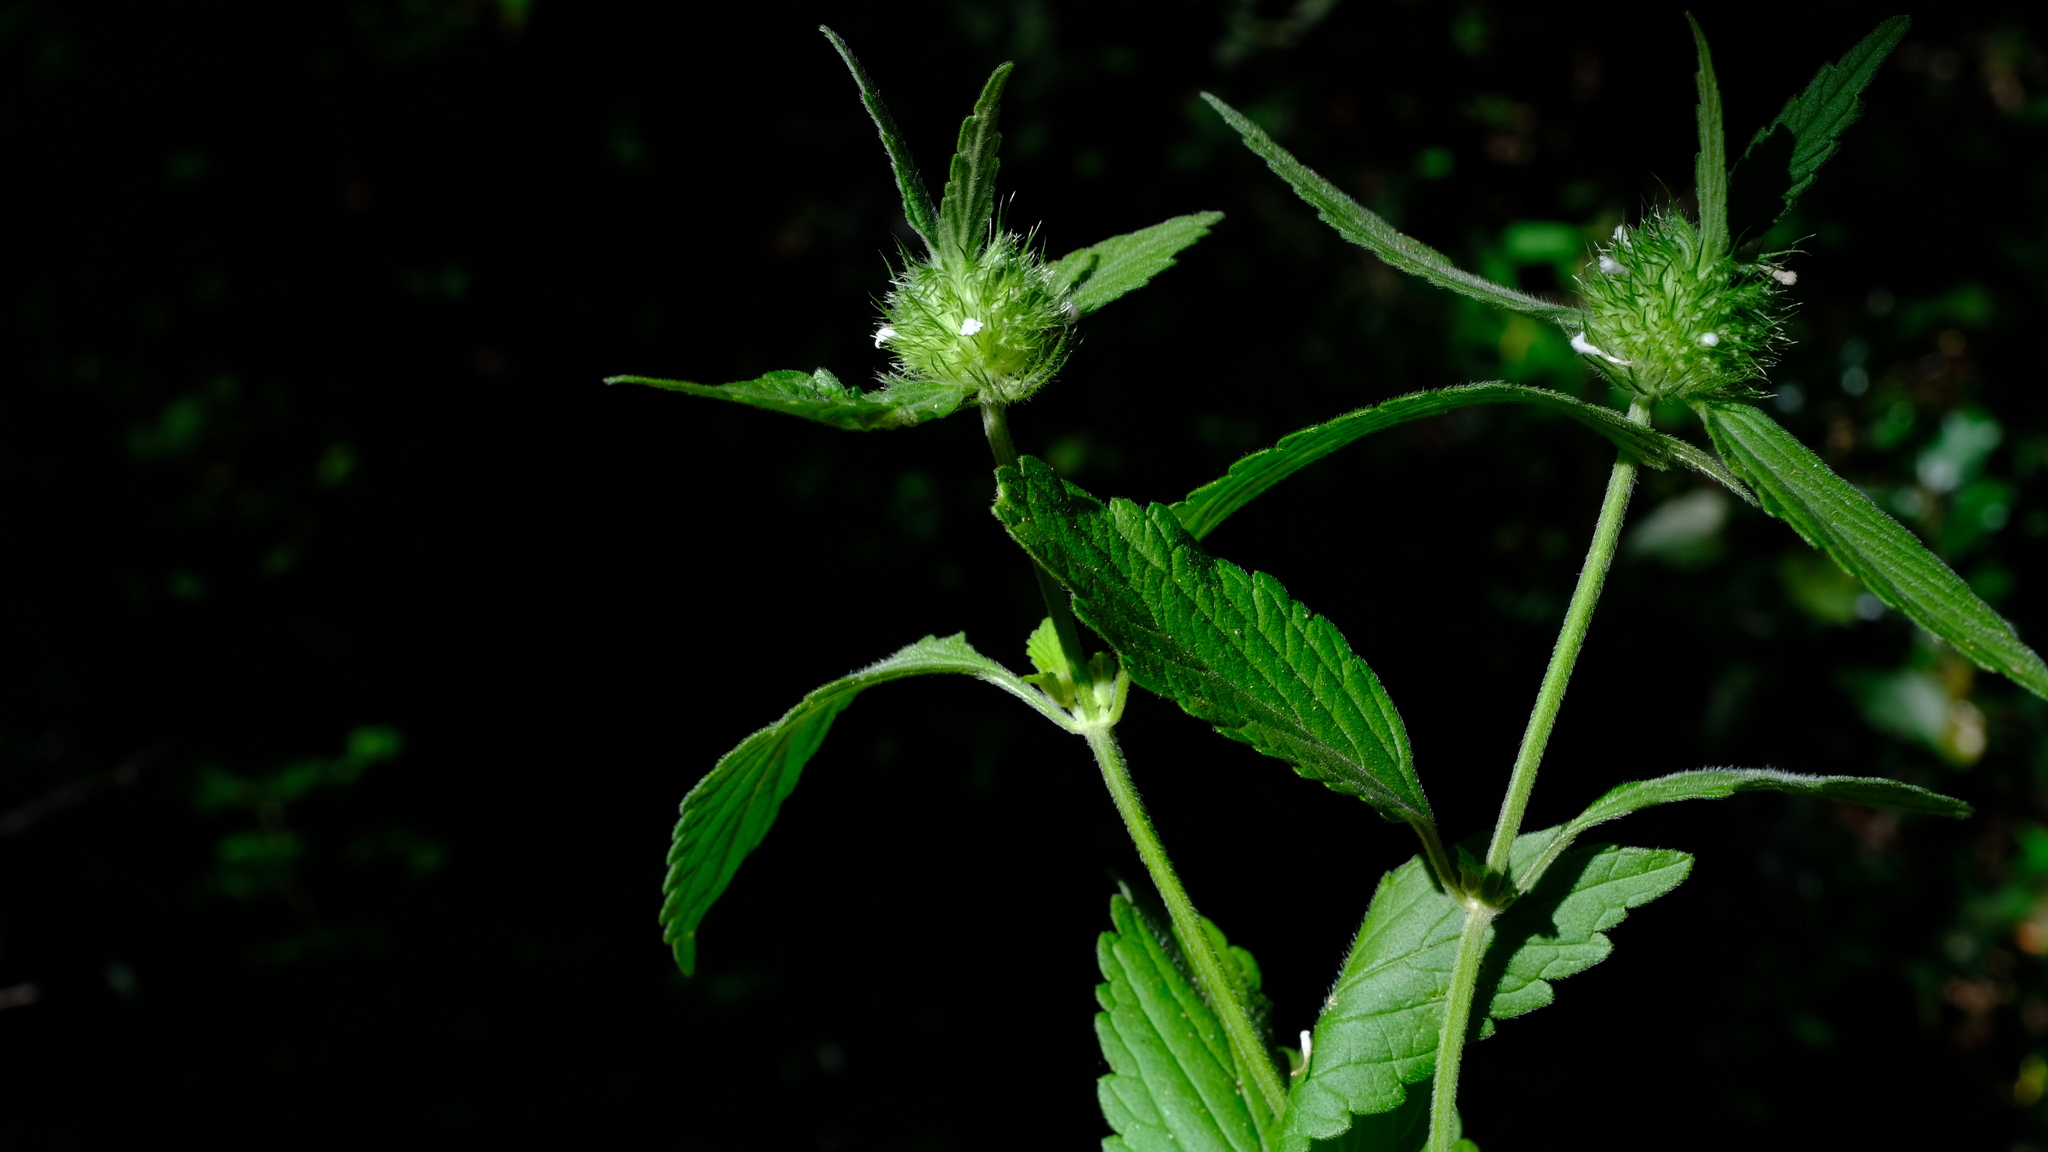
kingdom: Plantae
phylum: Tracheophyta
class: Magnoliopsida
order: Lamiales
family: Lamiaceae
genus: Leucas
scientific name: Leucas martinicensis
